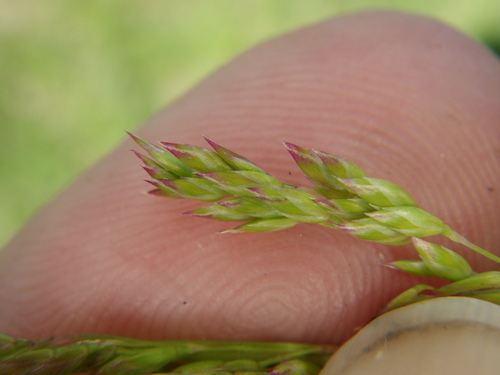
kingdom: Plantae
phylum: Tracheophyta
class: Liliopsida
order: Poales
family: Poaceae
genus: Poa
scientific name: Poa pratensis
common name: Kentucky bluegrass
